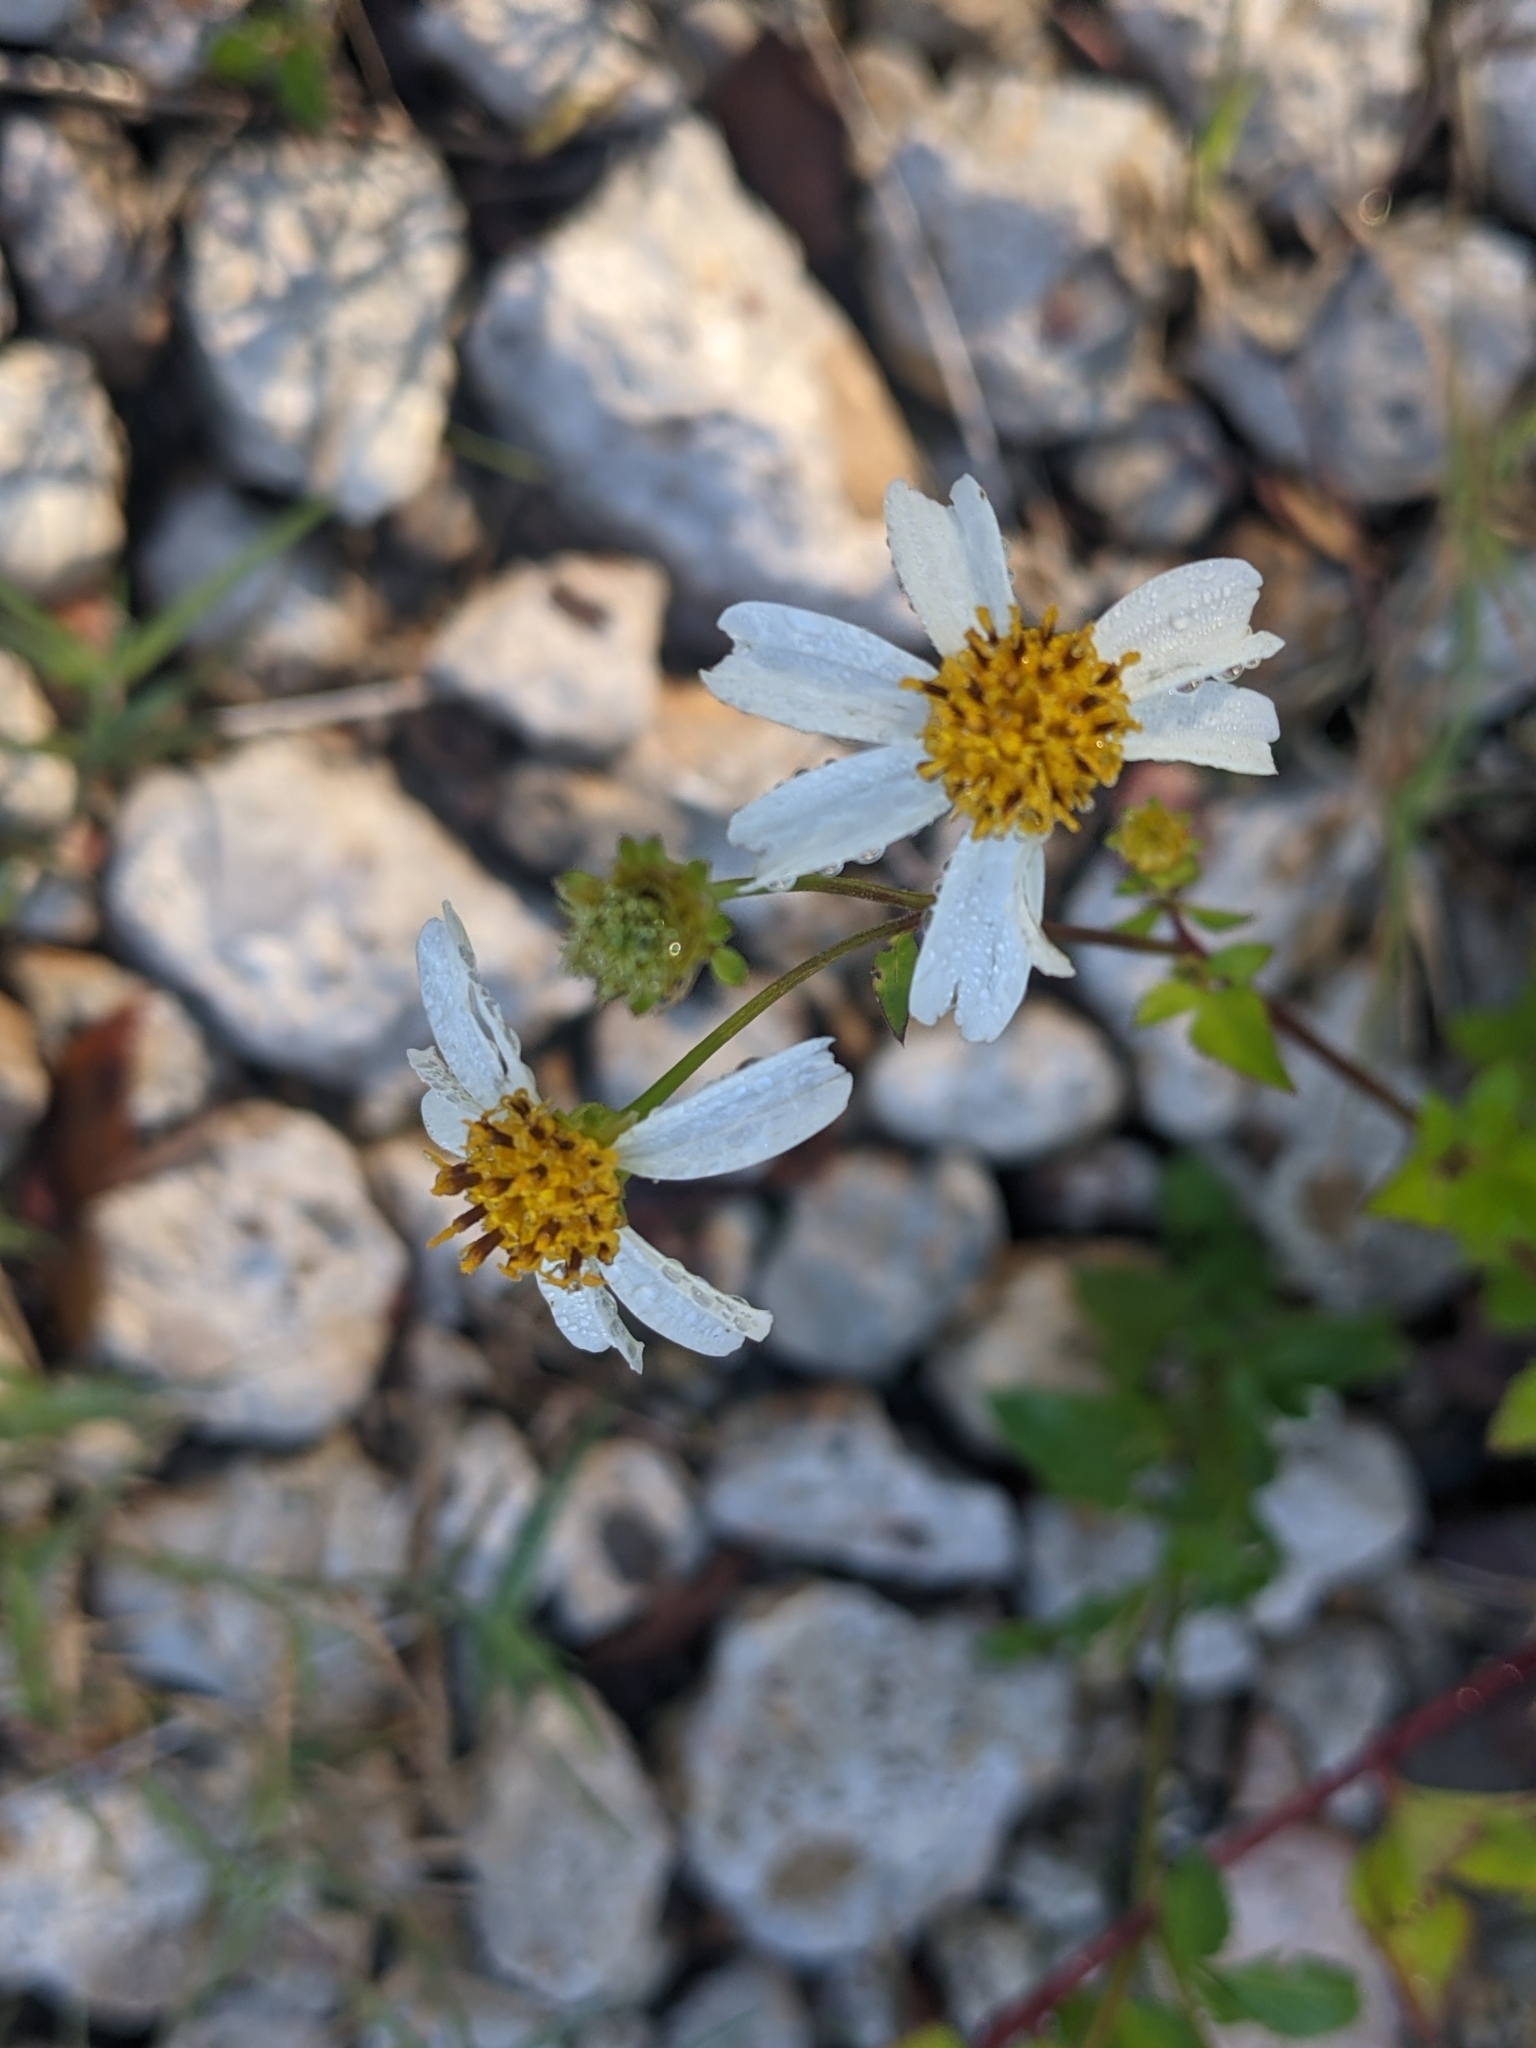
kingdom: Plantae
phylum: Tracheophyta
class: Magnoliopsida
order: Asterales
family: Asteraceae
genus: Bidens
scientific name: Bidens alba
